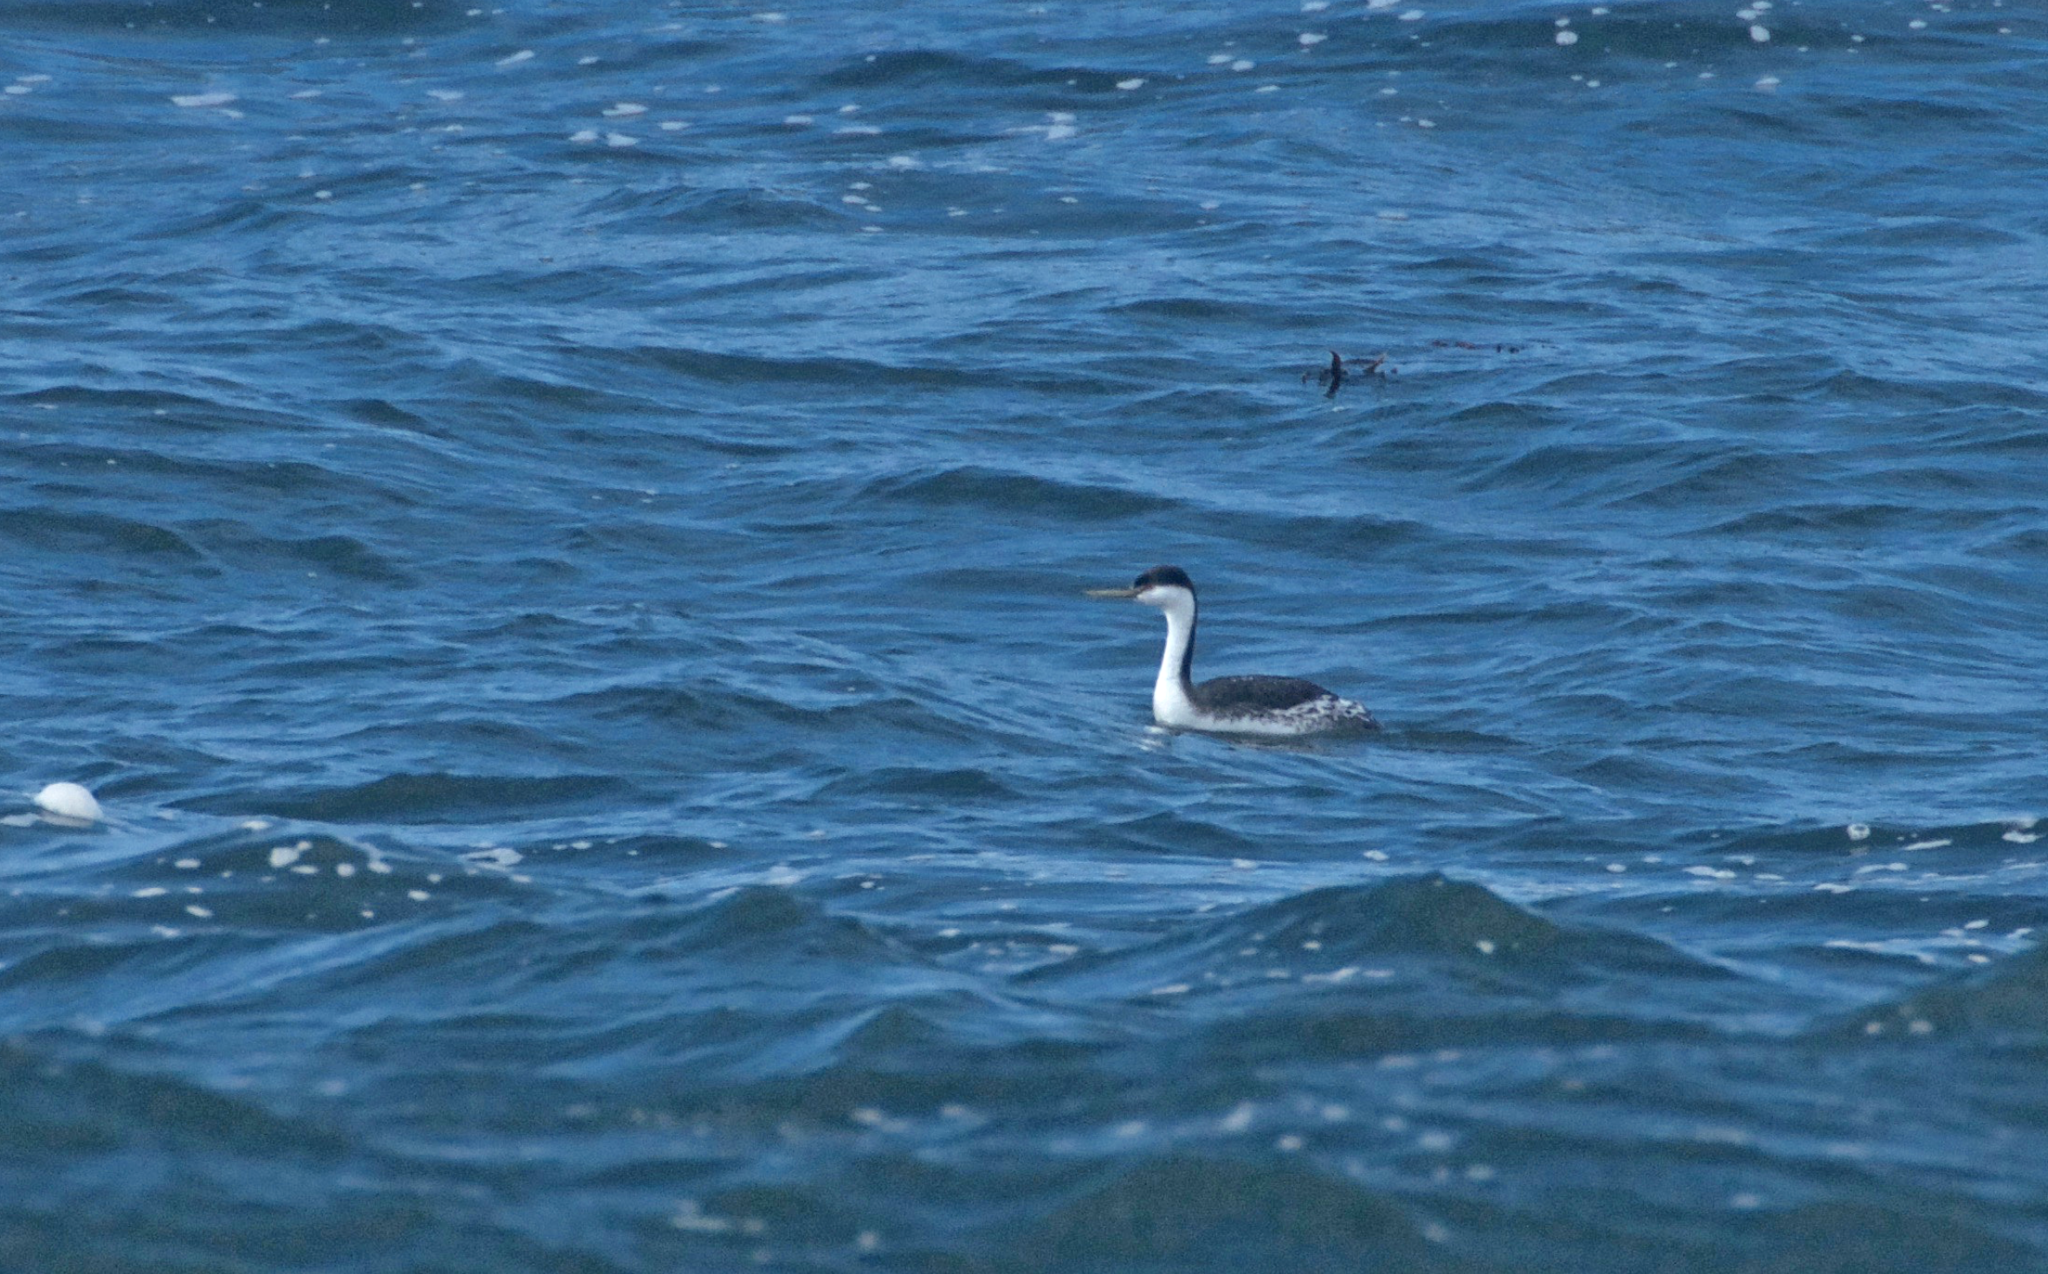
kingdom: Animalia
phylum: Chordata
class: Aves
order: Podicipediformes
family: Podicipedidae
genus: Aechmophorus
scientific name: Aechmophorus occidentalis
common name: Western grebe
